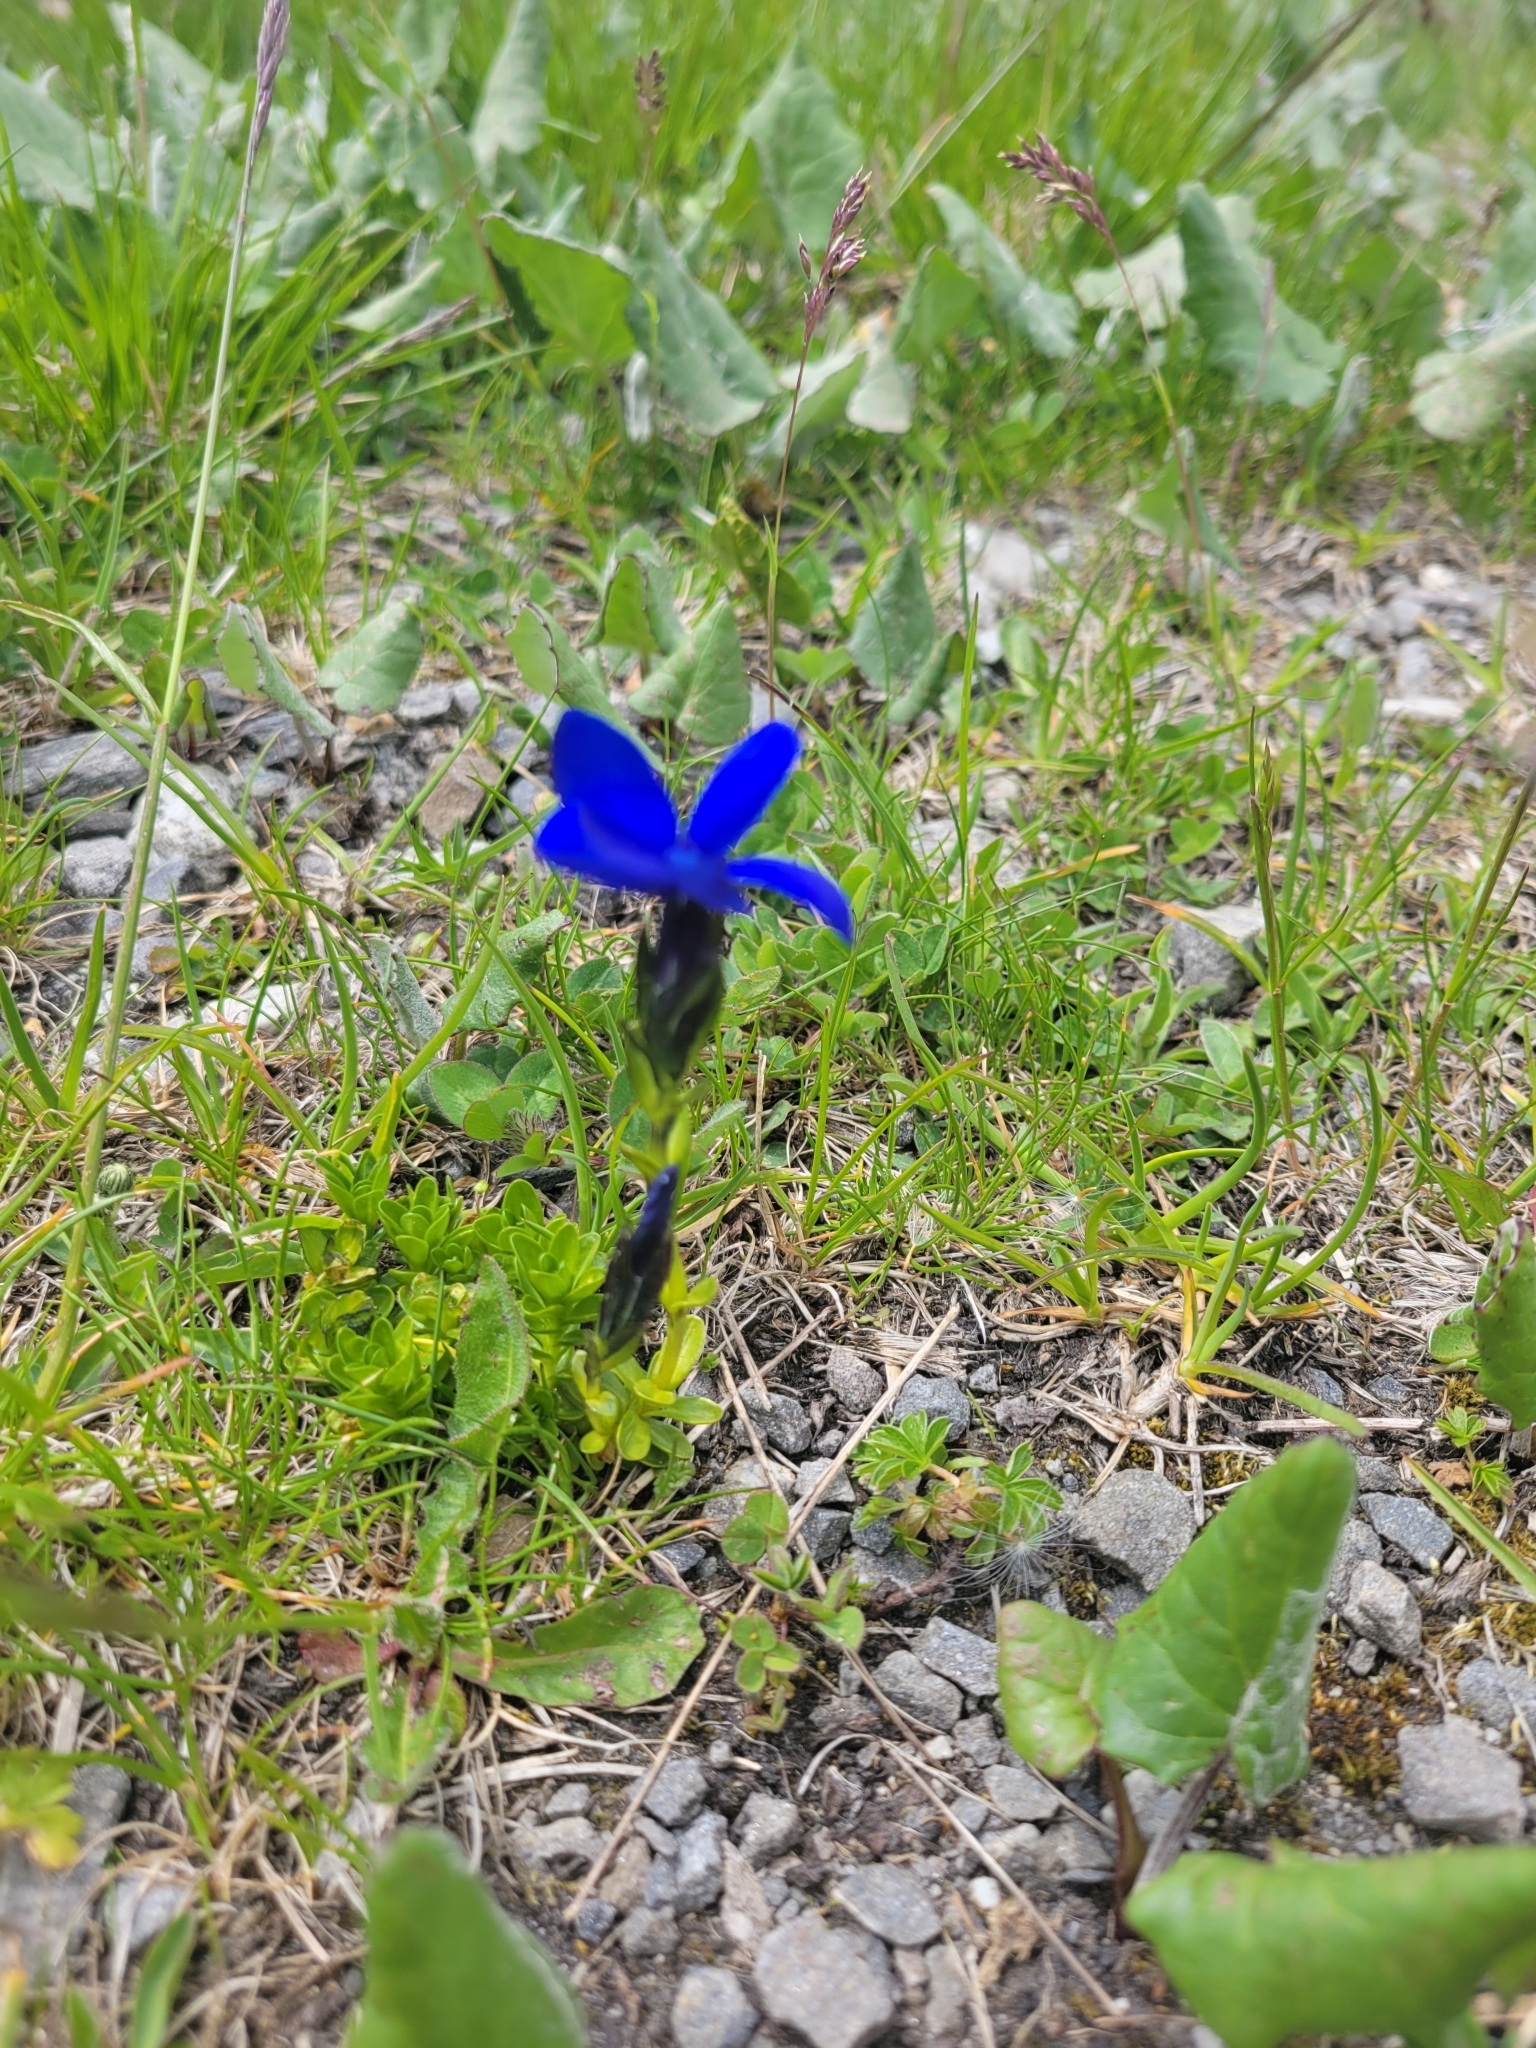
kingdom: Plantae
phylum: Tracheophyta
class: Magnoliopsida
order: Gentianales
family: Gentianaceae
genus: Gentiana
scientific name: Gentiana bavarica
